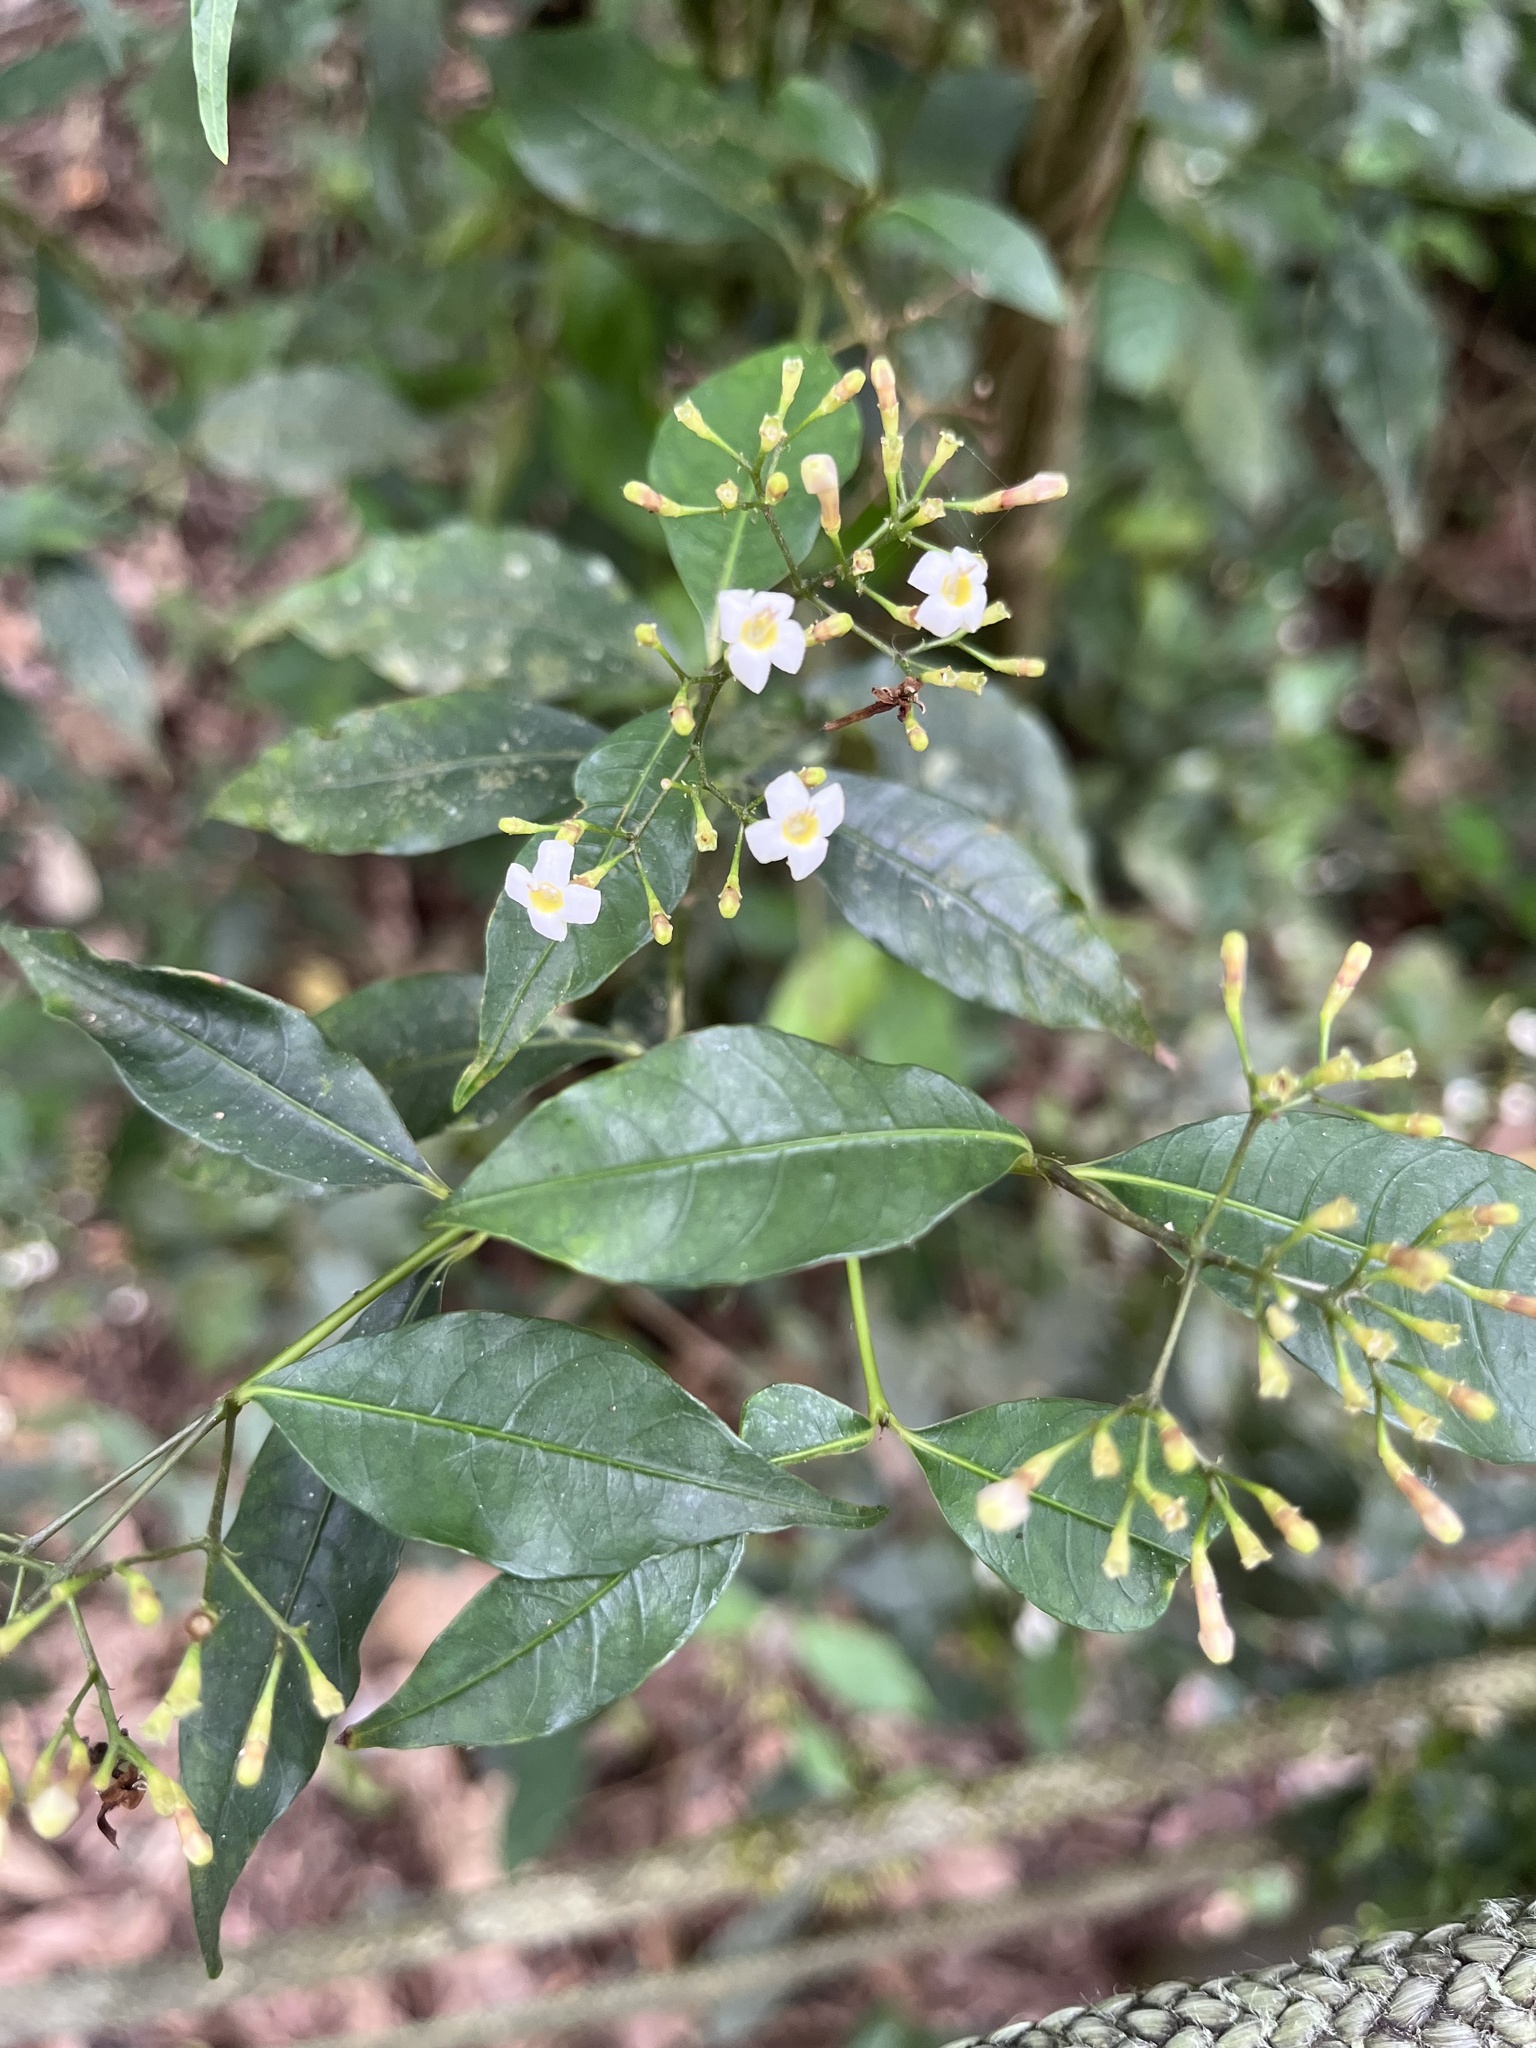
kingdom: Plantae
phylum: Tracheophyta
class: Magnoliopsida
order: Gentianales
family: Rubiaceae
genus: Psychotria
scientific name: Psychotria leiocarpa
